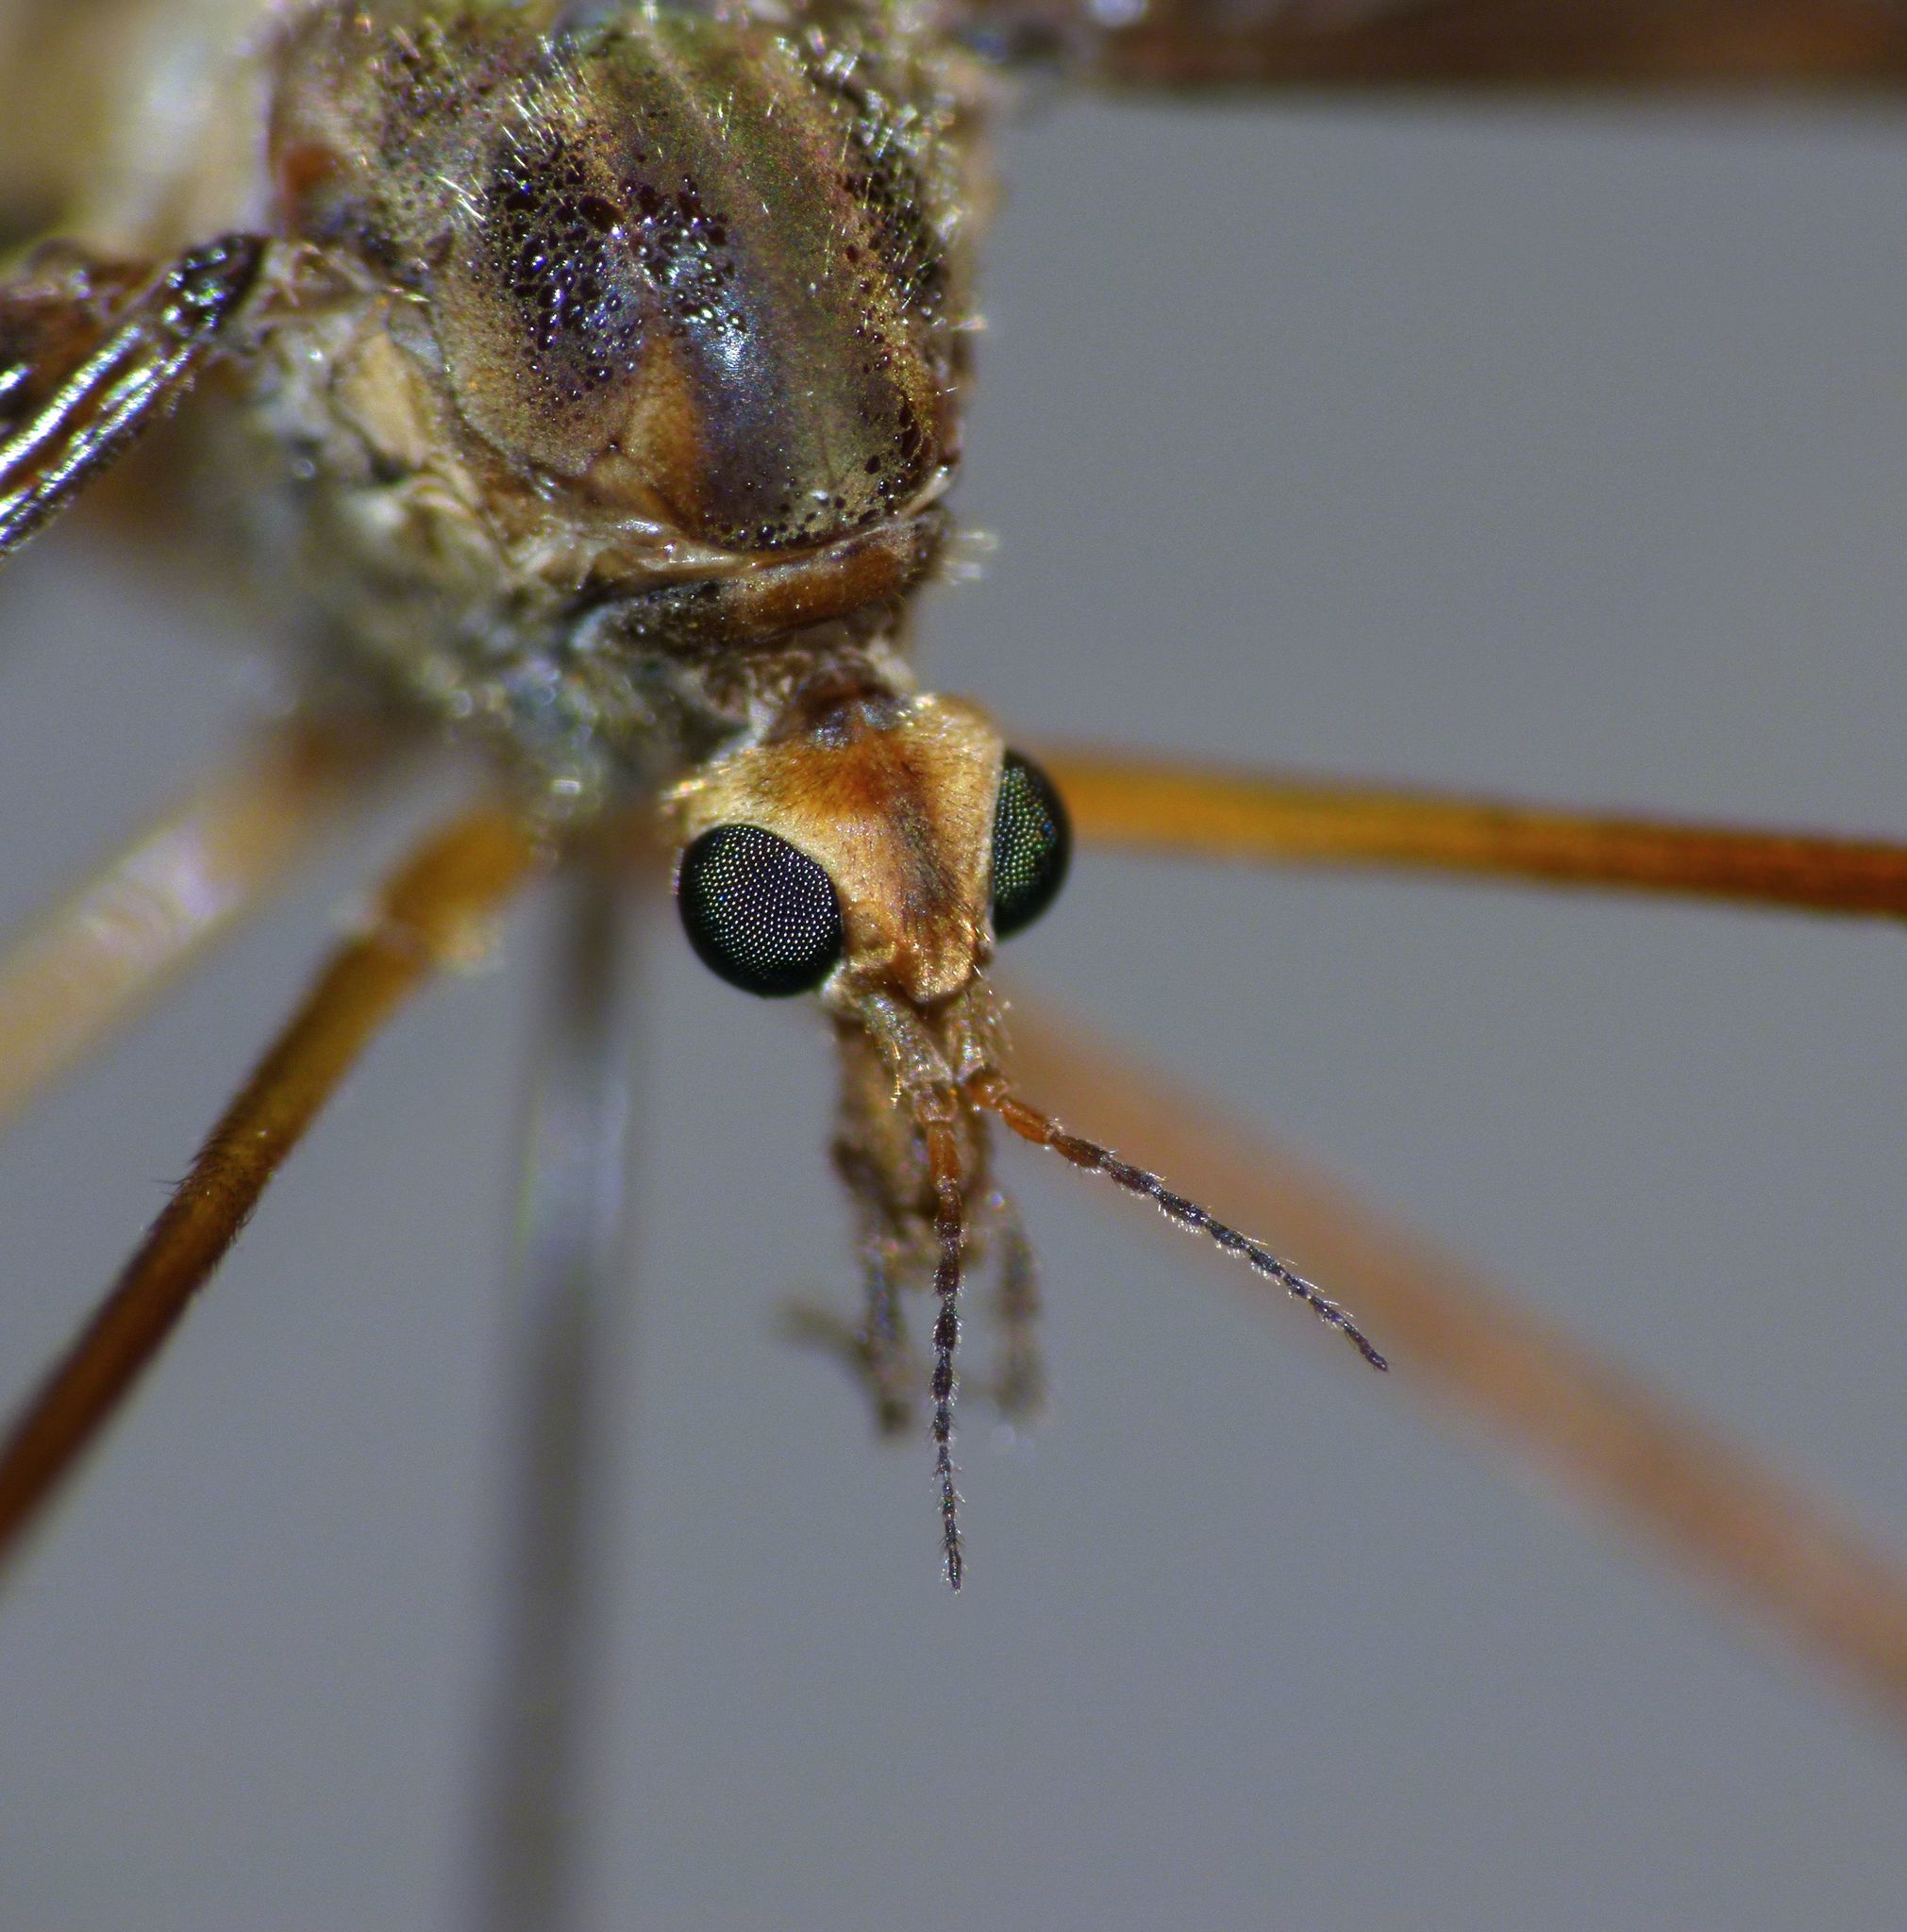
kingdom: Animalia
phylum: Arthropoda
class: Insecta
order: Diptera
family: Tipulidae
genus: Leptotarsus
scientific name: Leptotarsus zeylandiae
